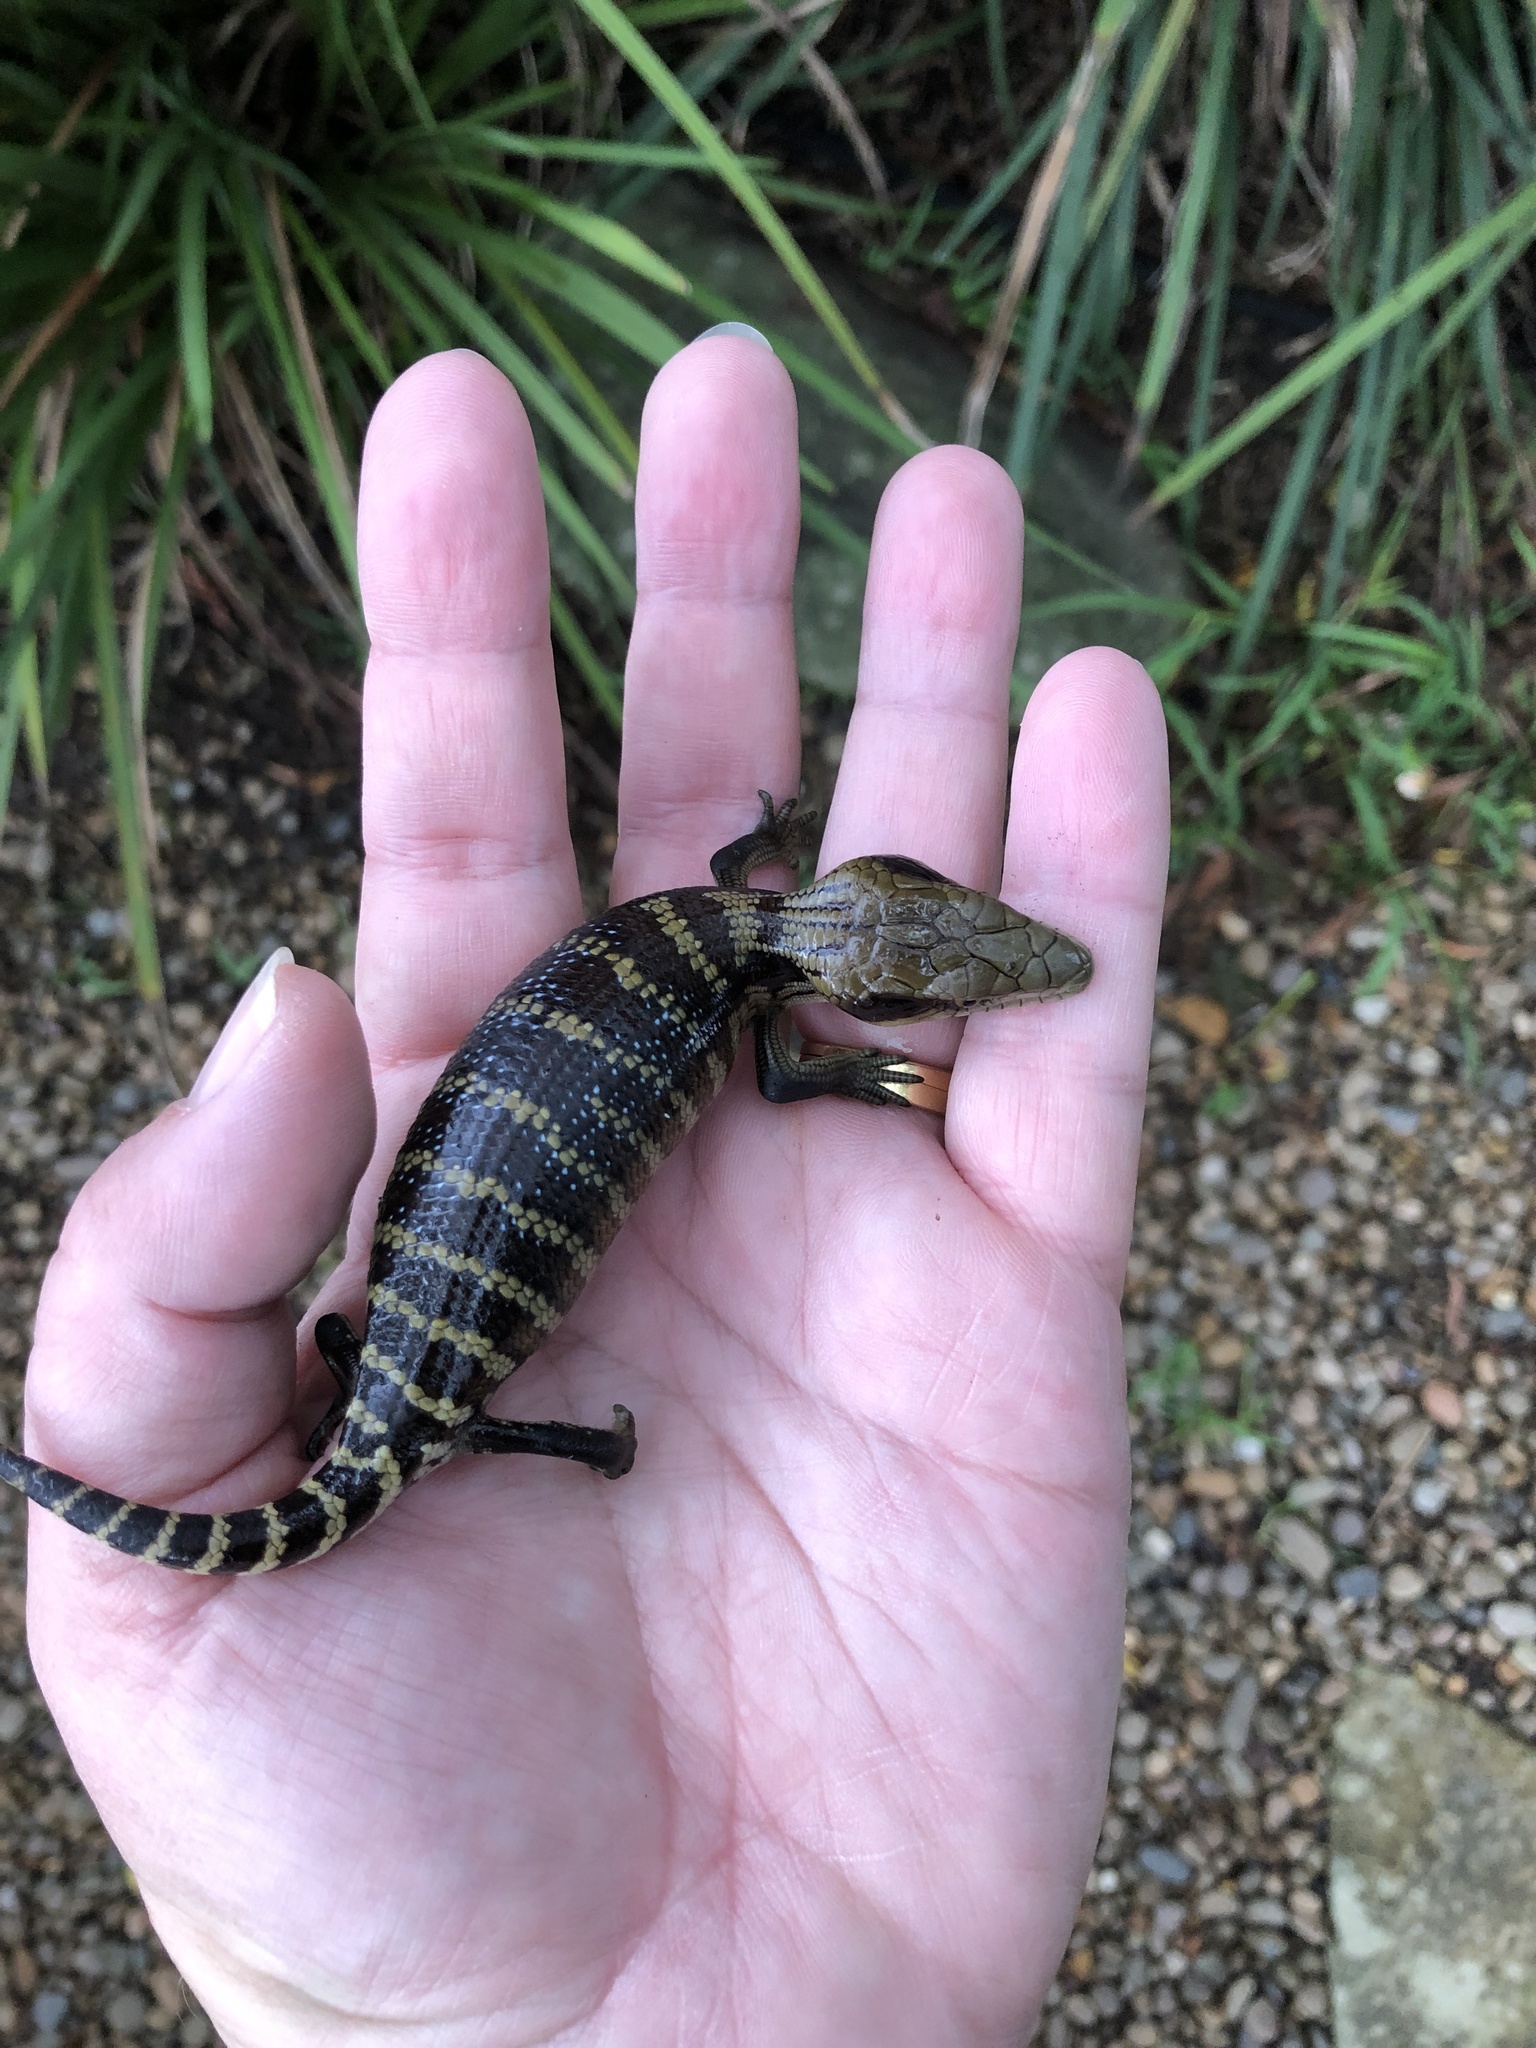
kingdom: Animalia
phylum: Chordata
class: Squamata
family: Scincidae
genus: Tiliqua
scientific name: Tiliqua scincoides
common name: Common bluetongue
